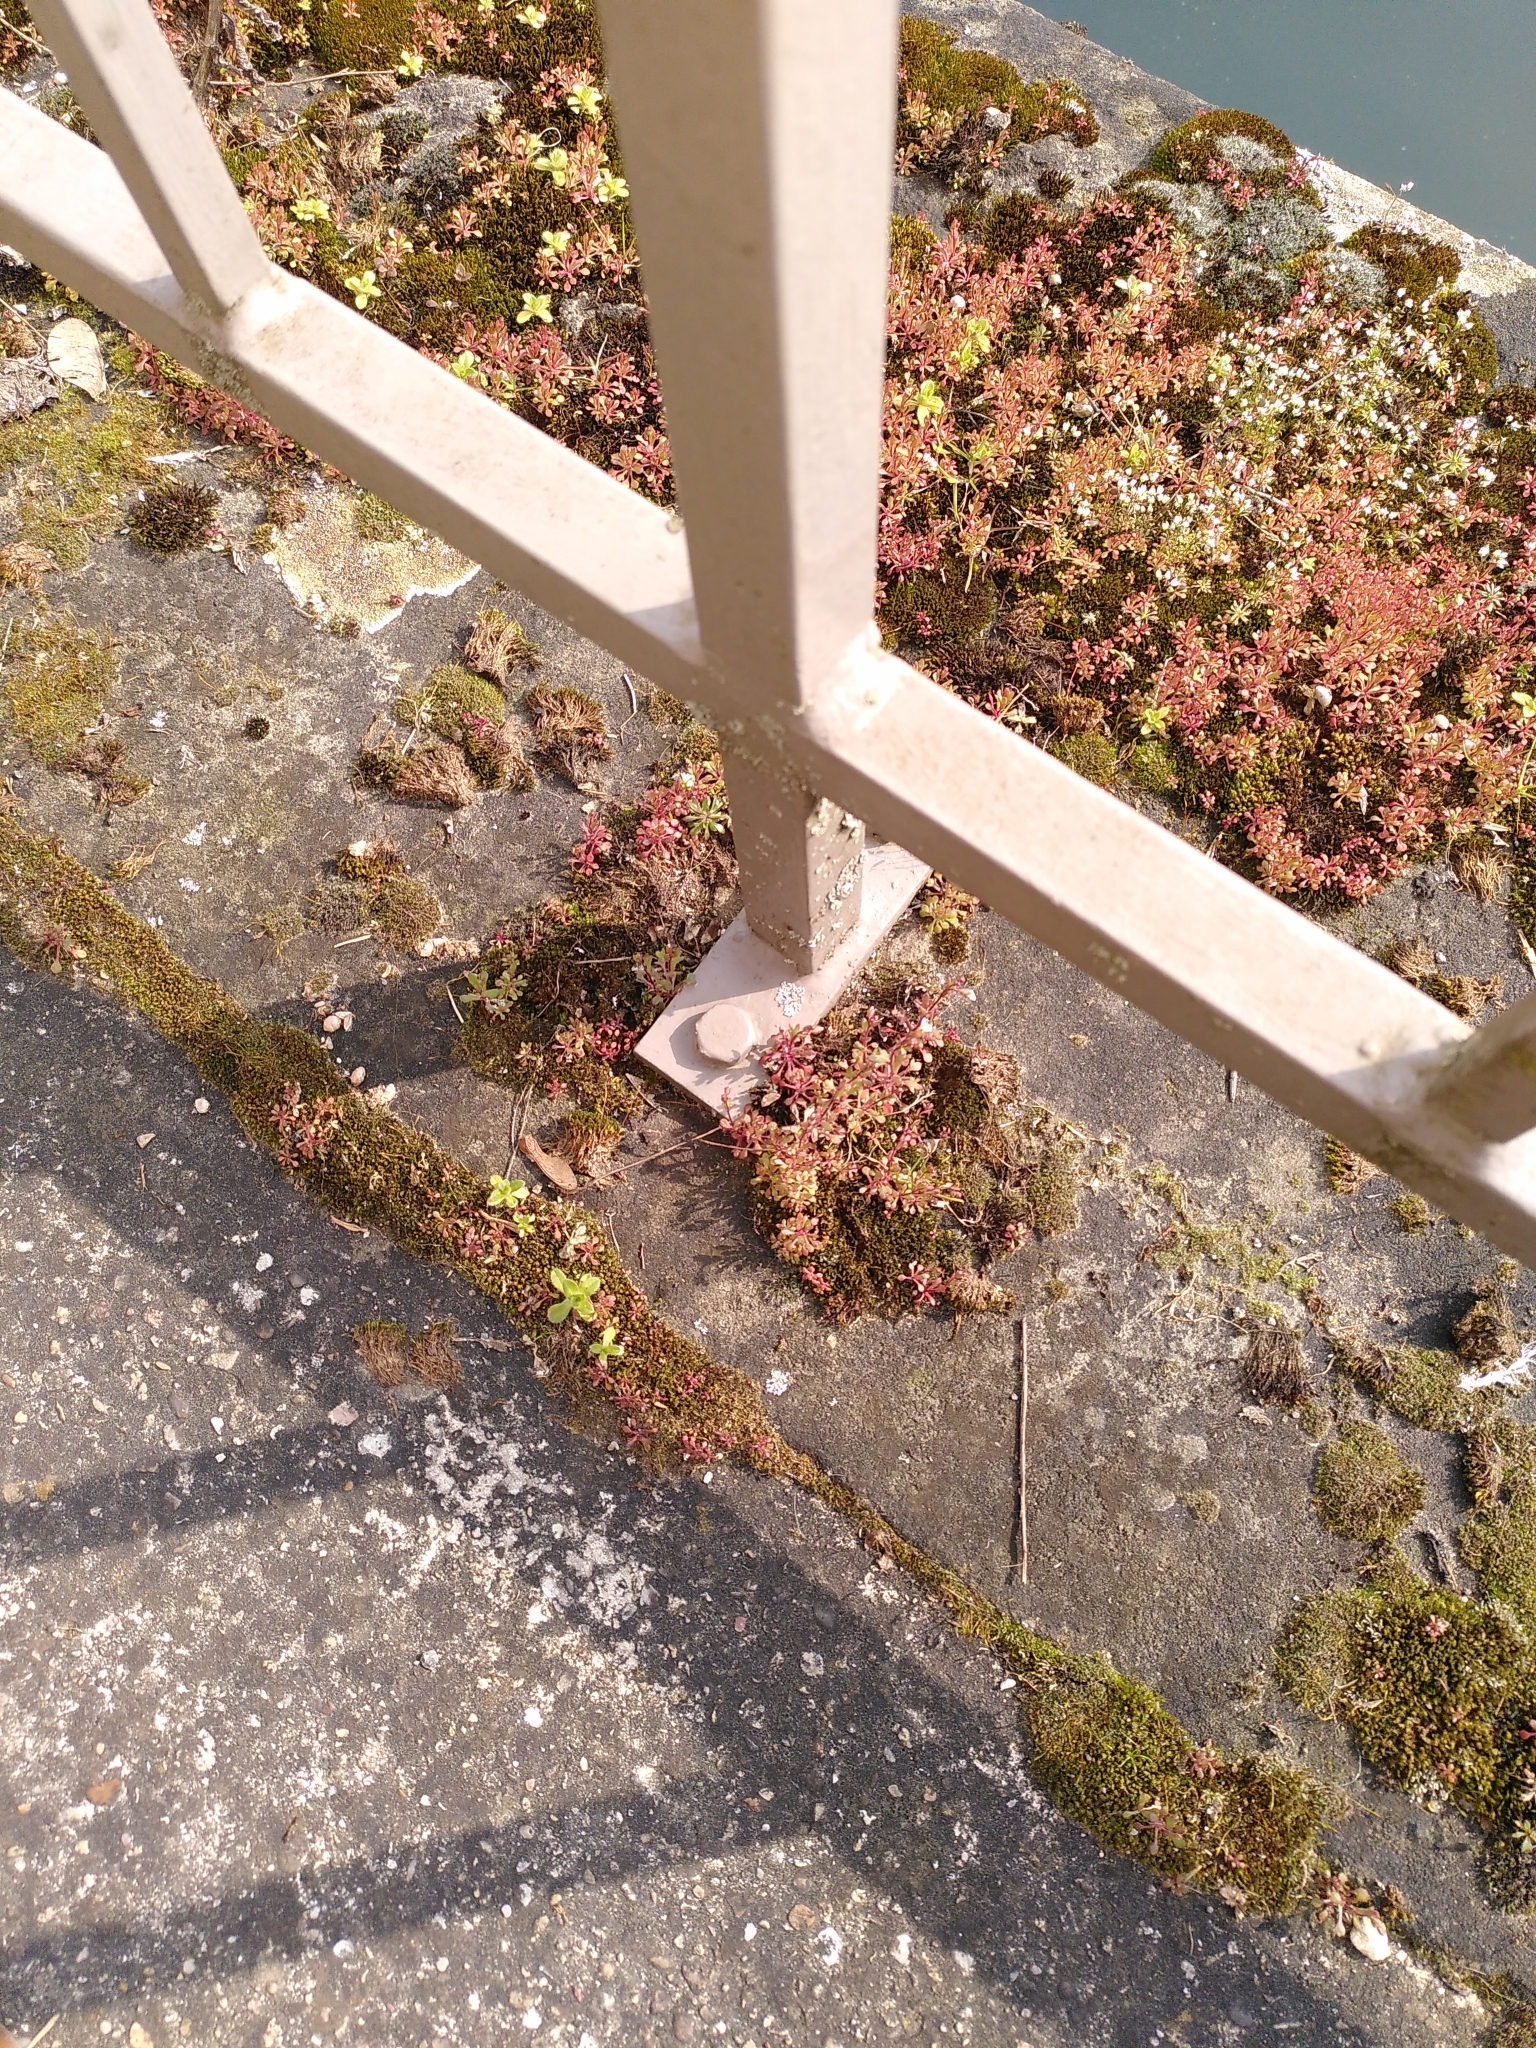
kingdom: Plantae
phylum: Tracheophyta
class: Magnoliopsida
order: Saxifragales
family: Saxifragaceae
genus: Saxifraga
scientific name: Saxifraga tridactylites
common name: Rue-leaved saxifrage
